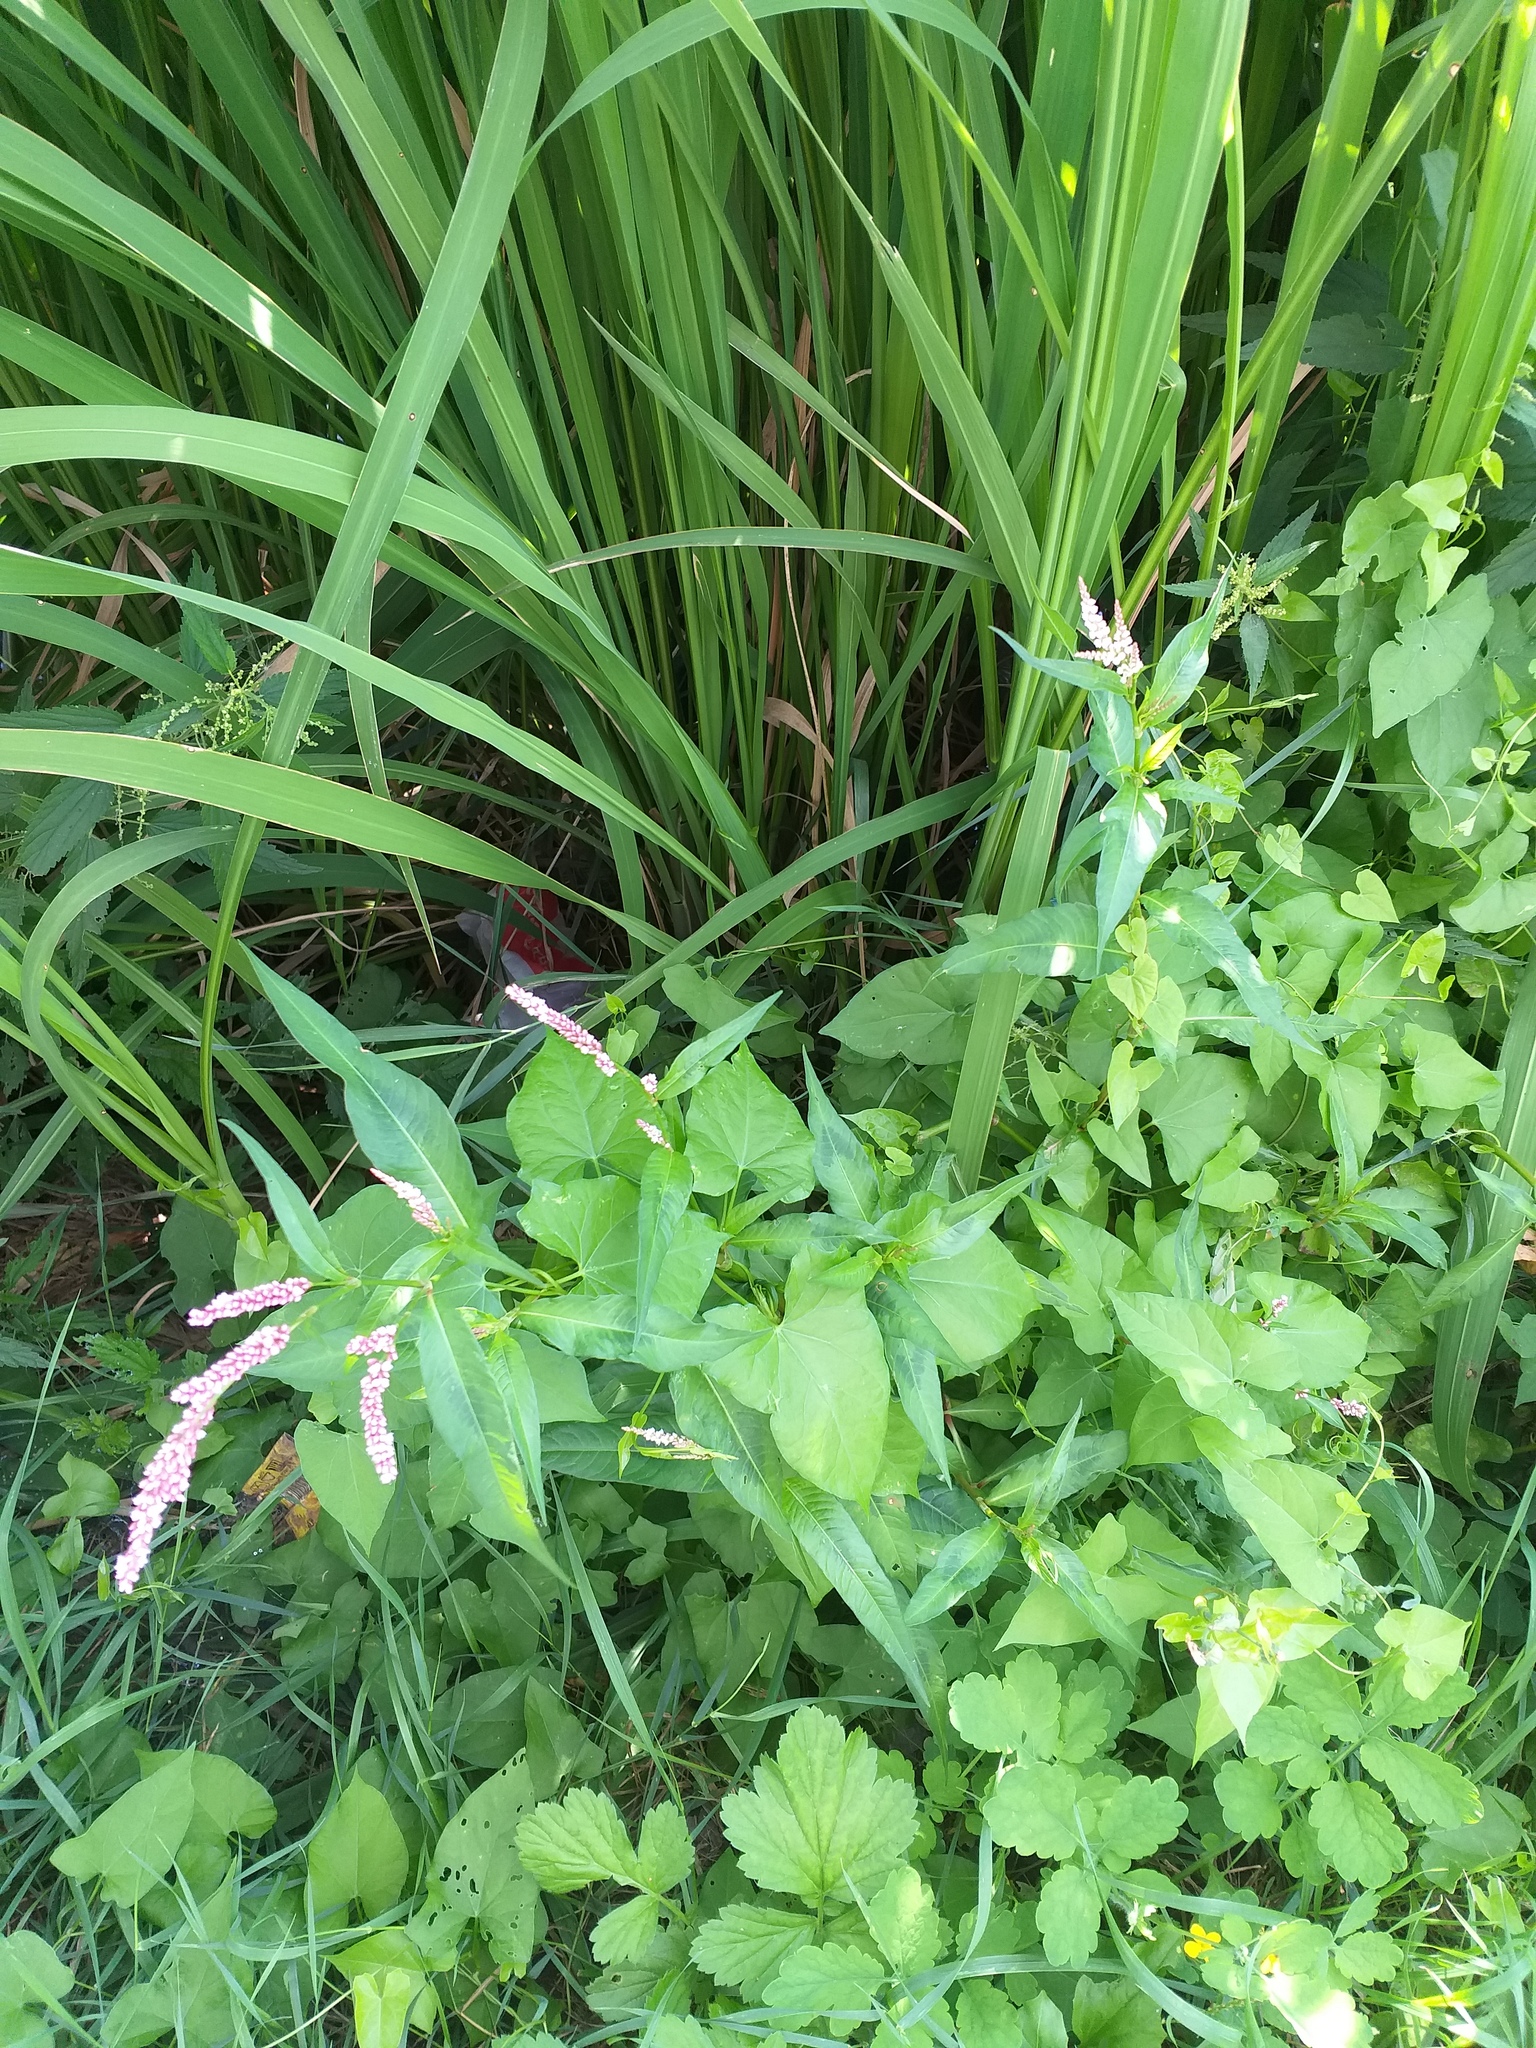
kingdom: Plantae
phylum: Tracheophyta
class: Magnoliopsida
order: Caryophyllales
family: Polygonaceae
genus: Persicaria
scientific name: Persicaria maculosa
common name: Redshank
